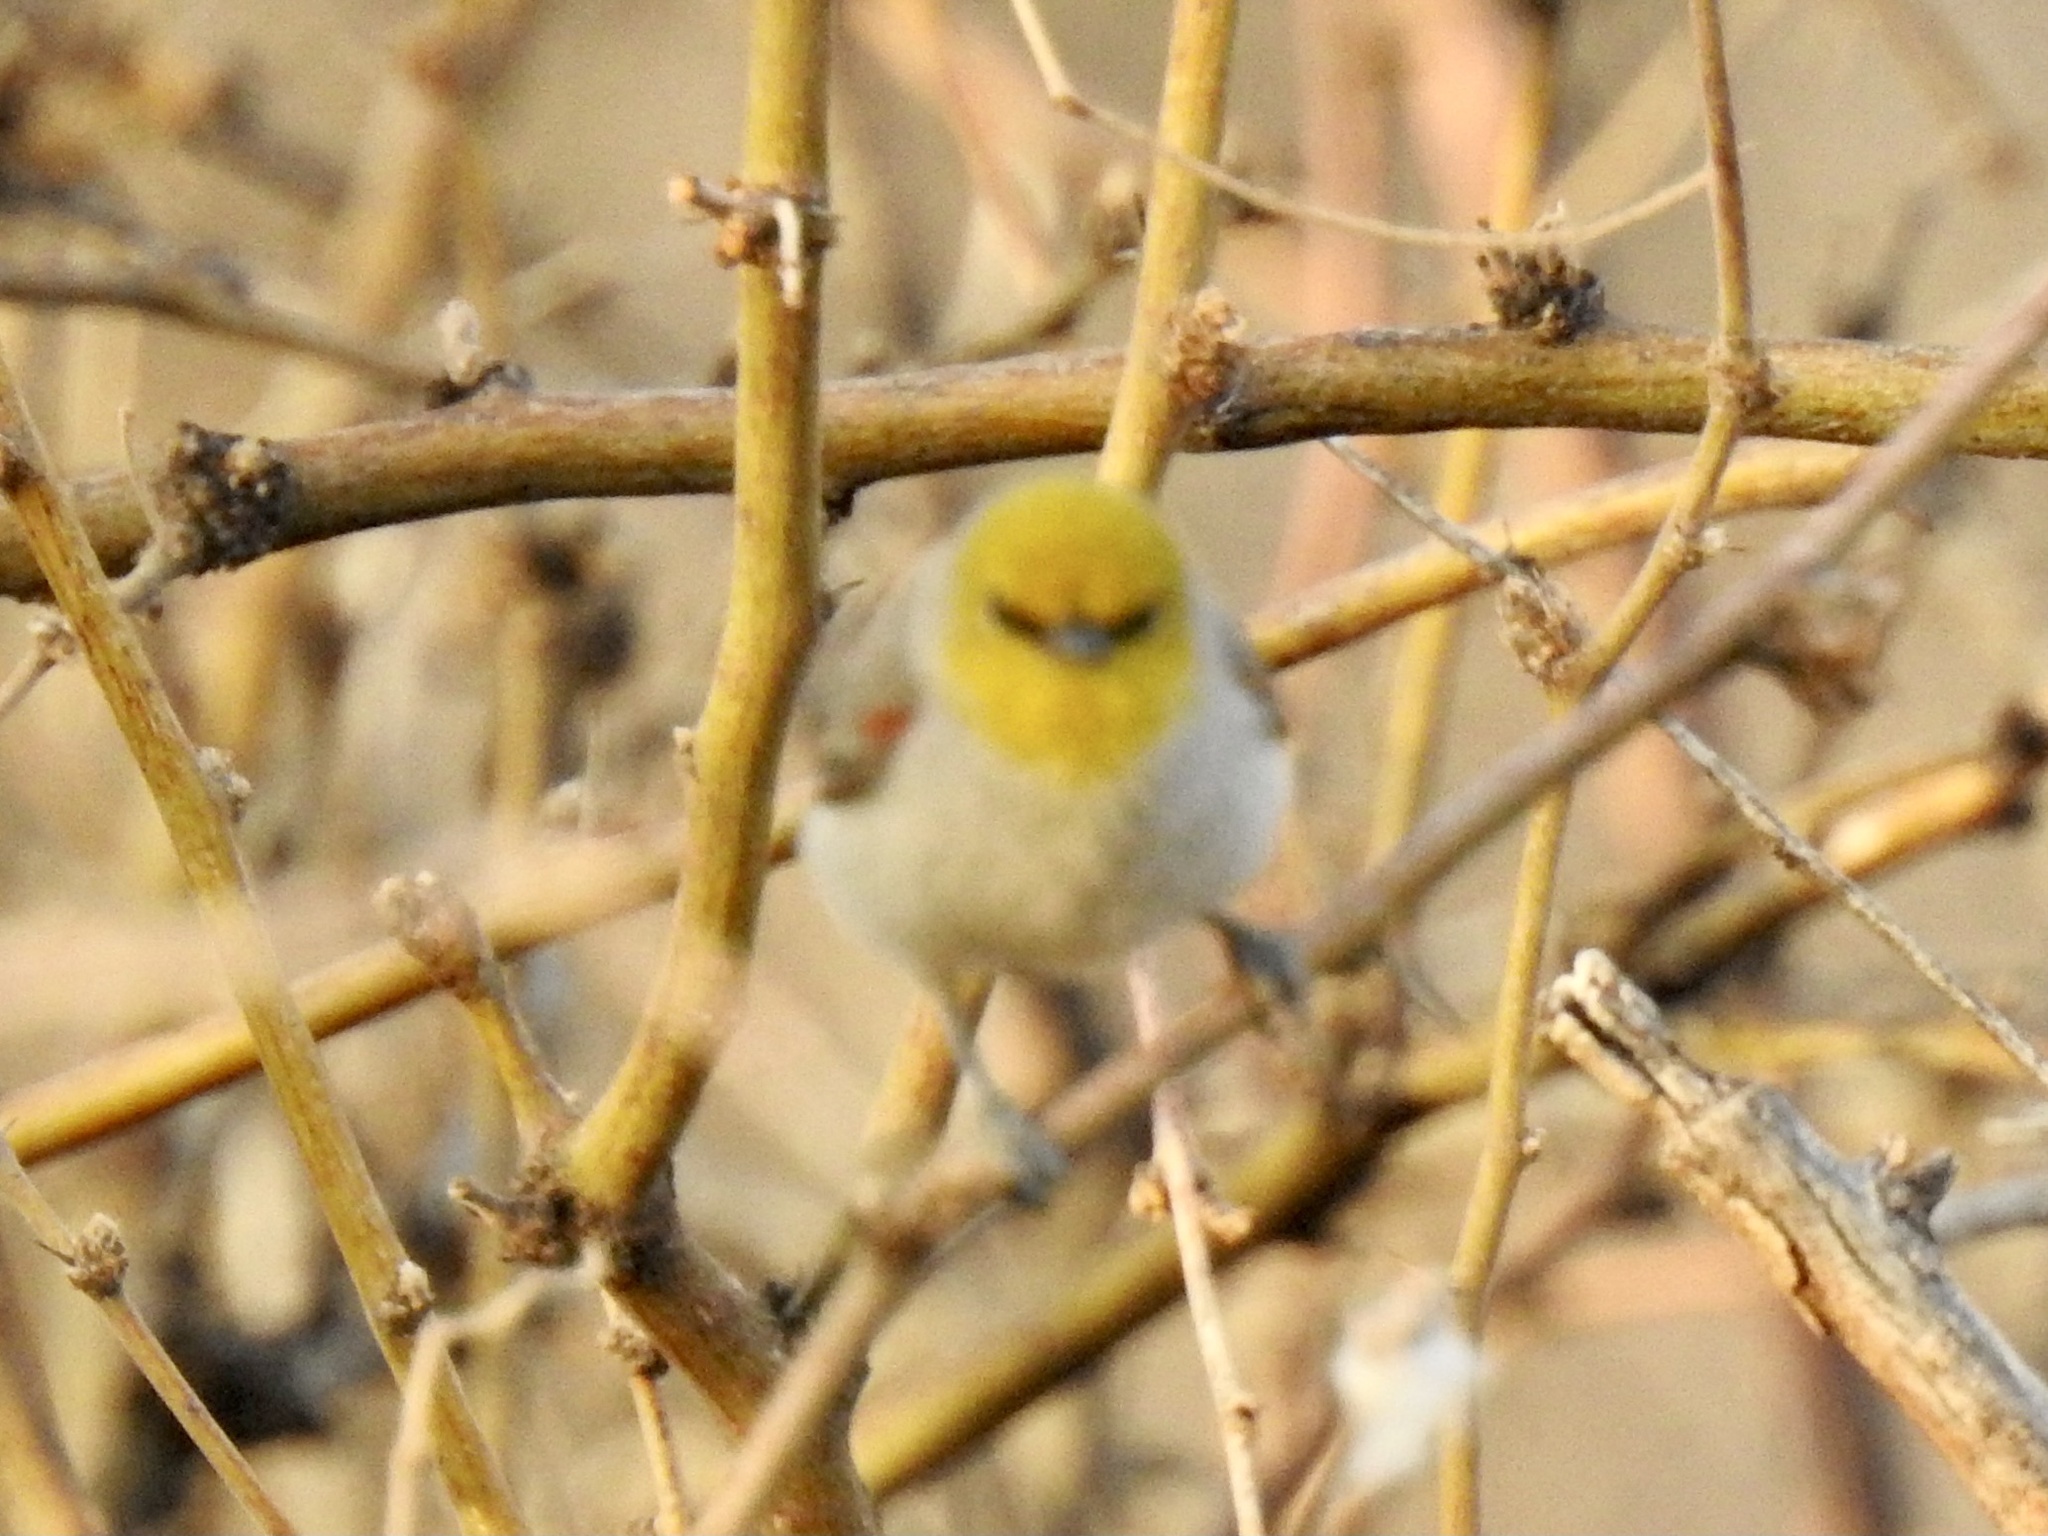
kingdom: Animalia
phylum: Chordata
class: Aves
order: Passeriformes
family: Remizidae
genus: Auriparus
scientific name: Auriparus flaviceps
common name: Verdin
